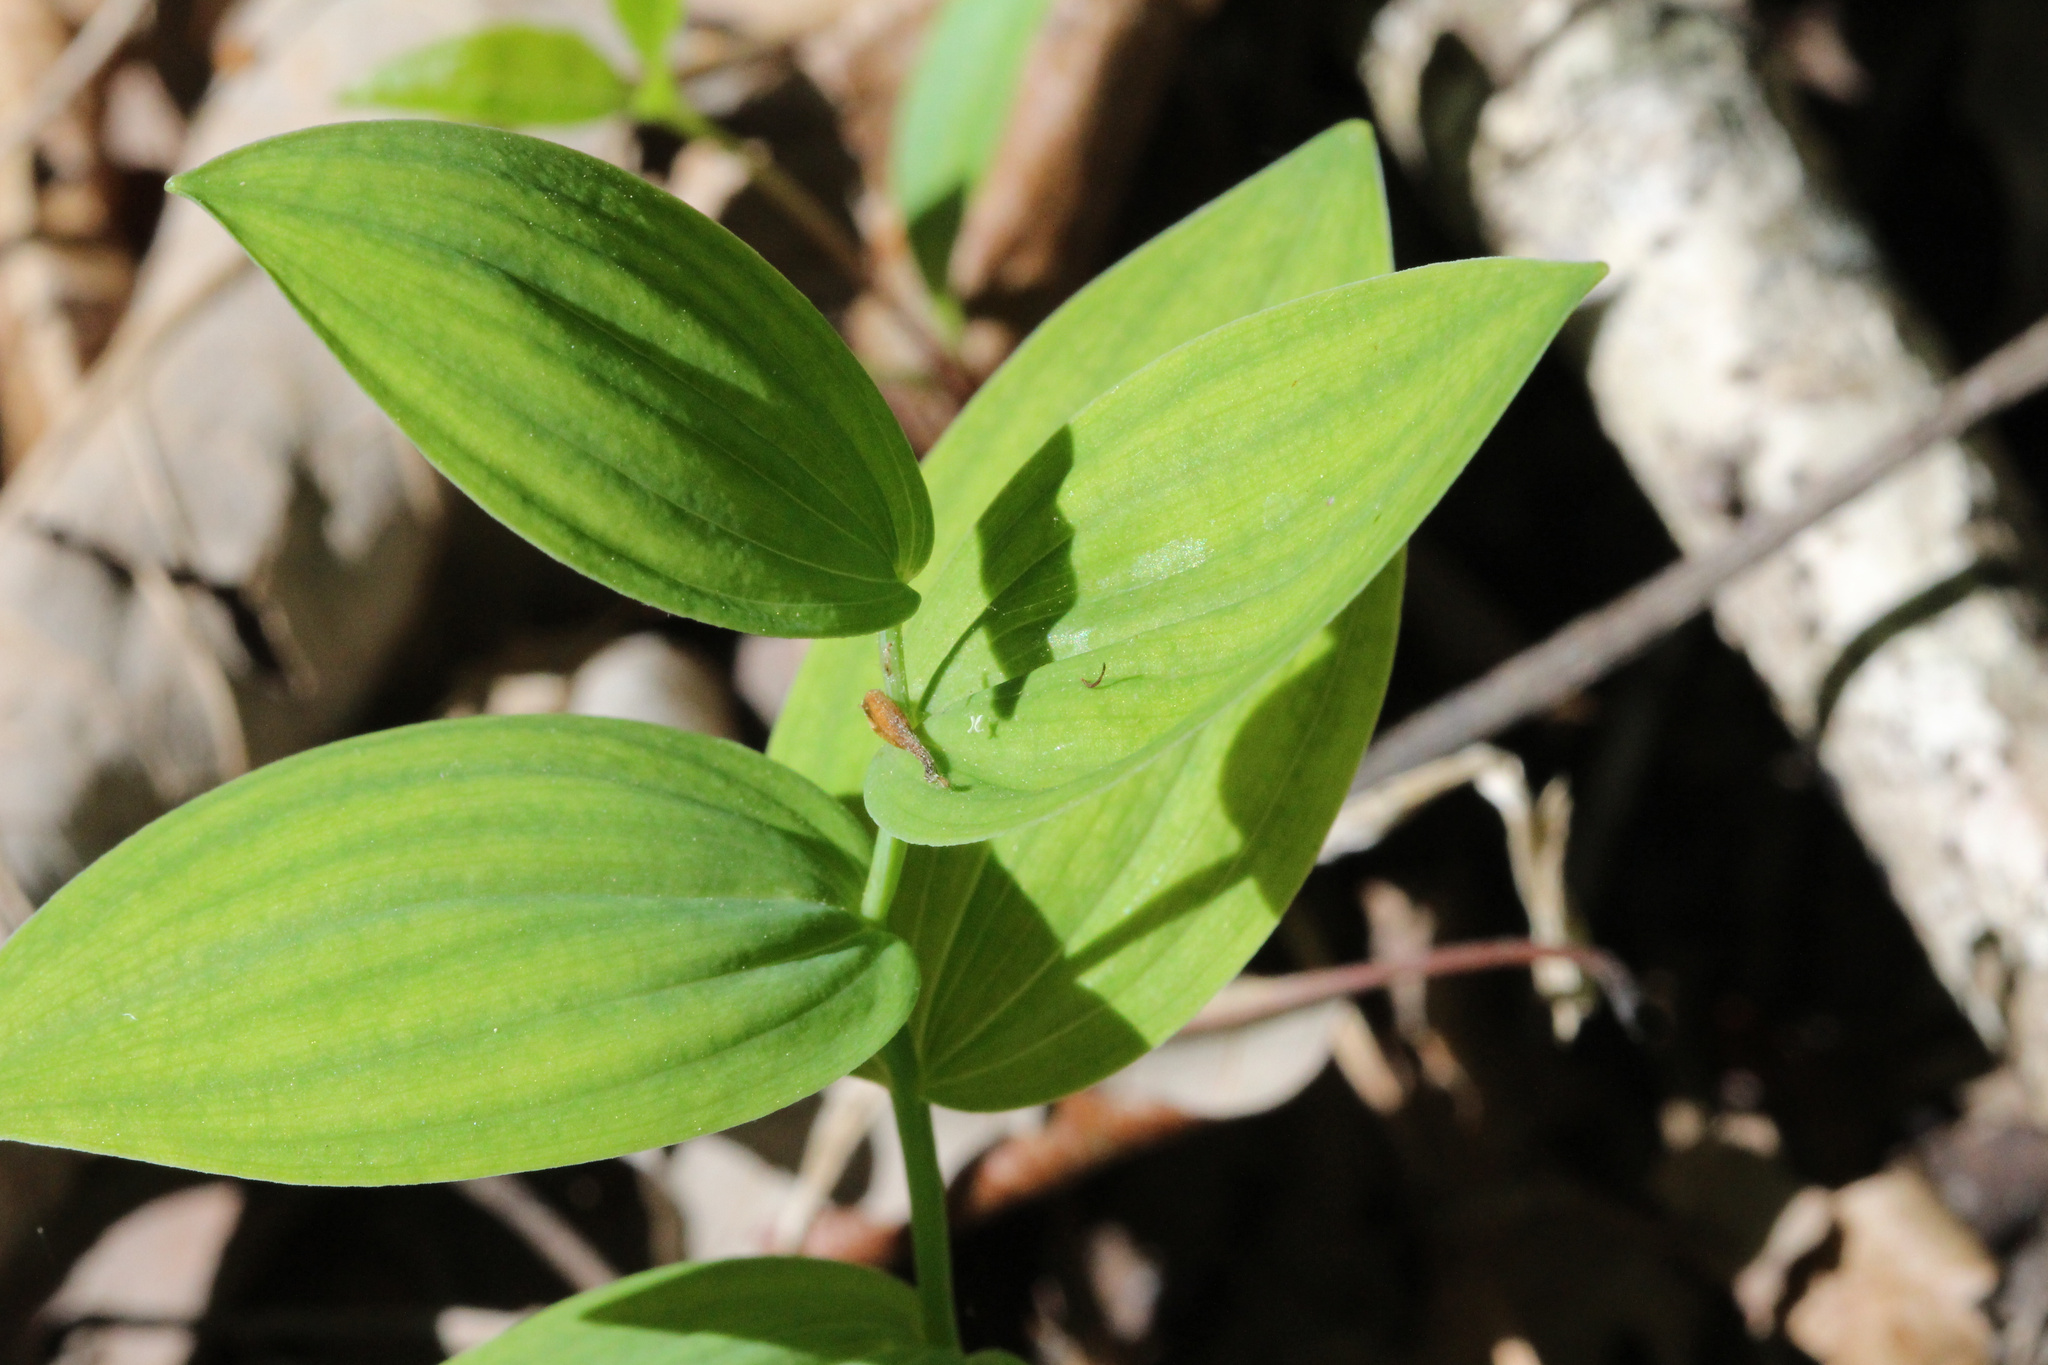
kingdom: Plantae
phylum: Tracheophyta
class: Liliopsida
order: Asparagales
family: Asparagaceae
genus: Polygonatum
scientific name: Polygonatum biflorum
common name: American solomon's-seal
